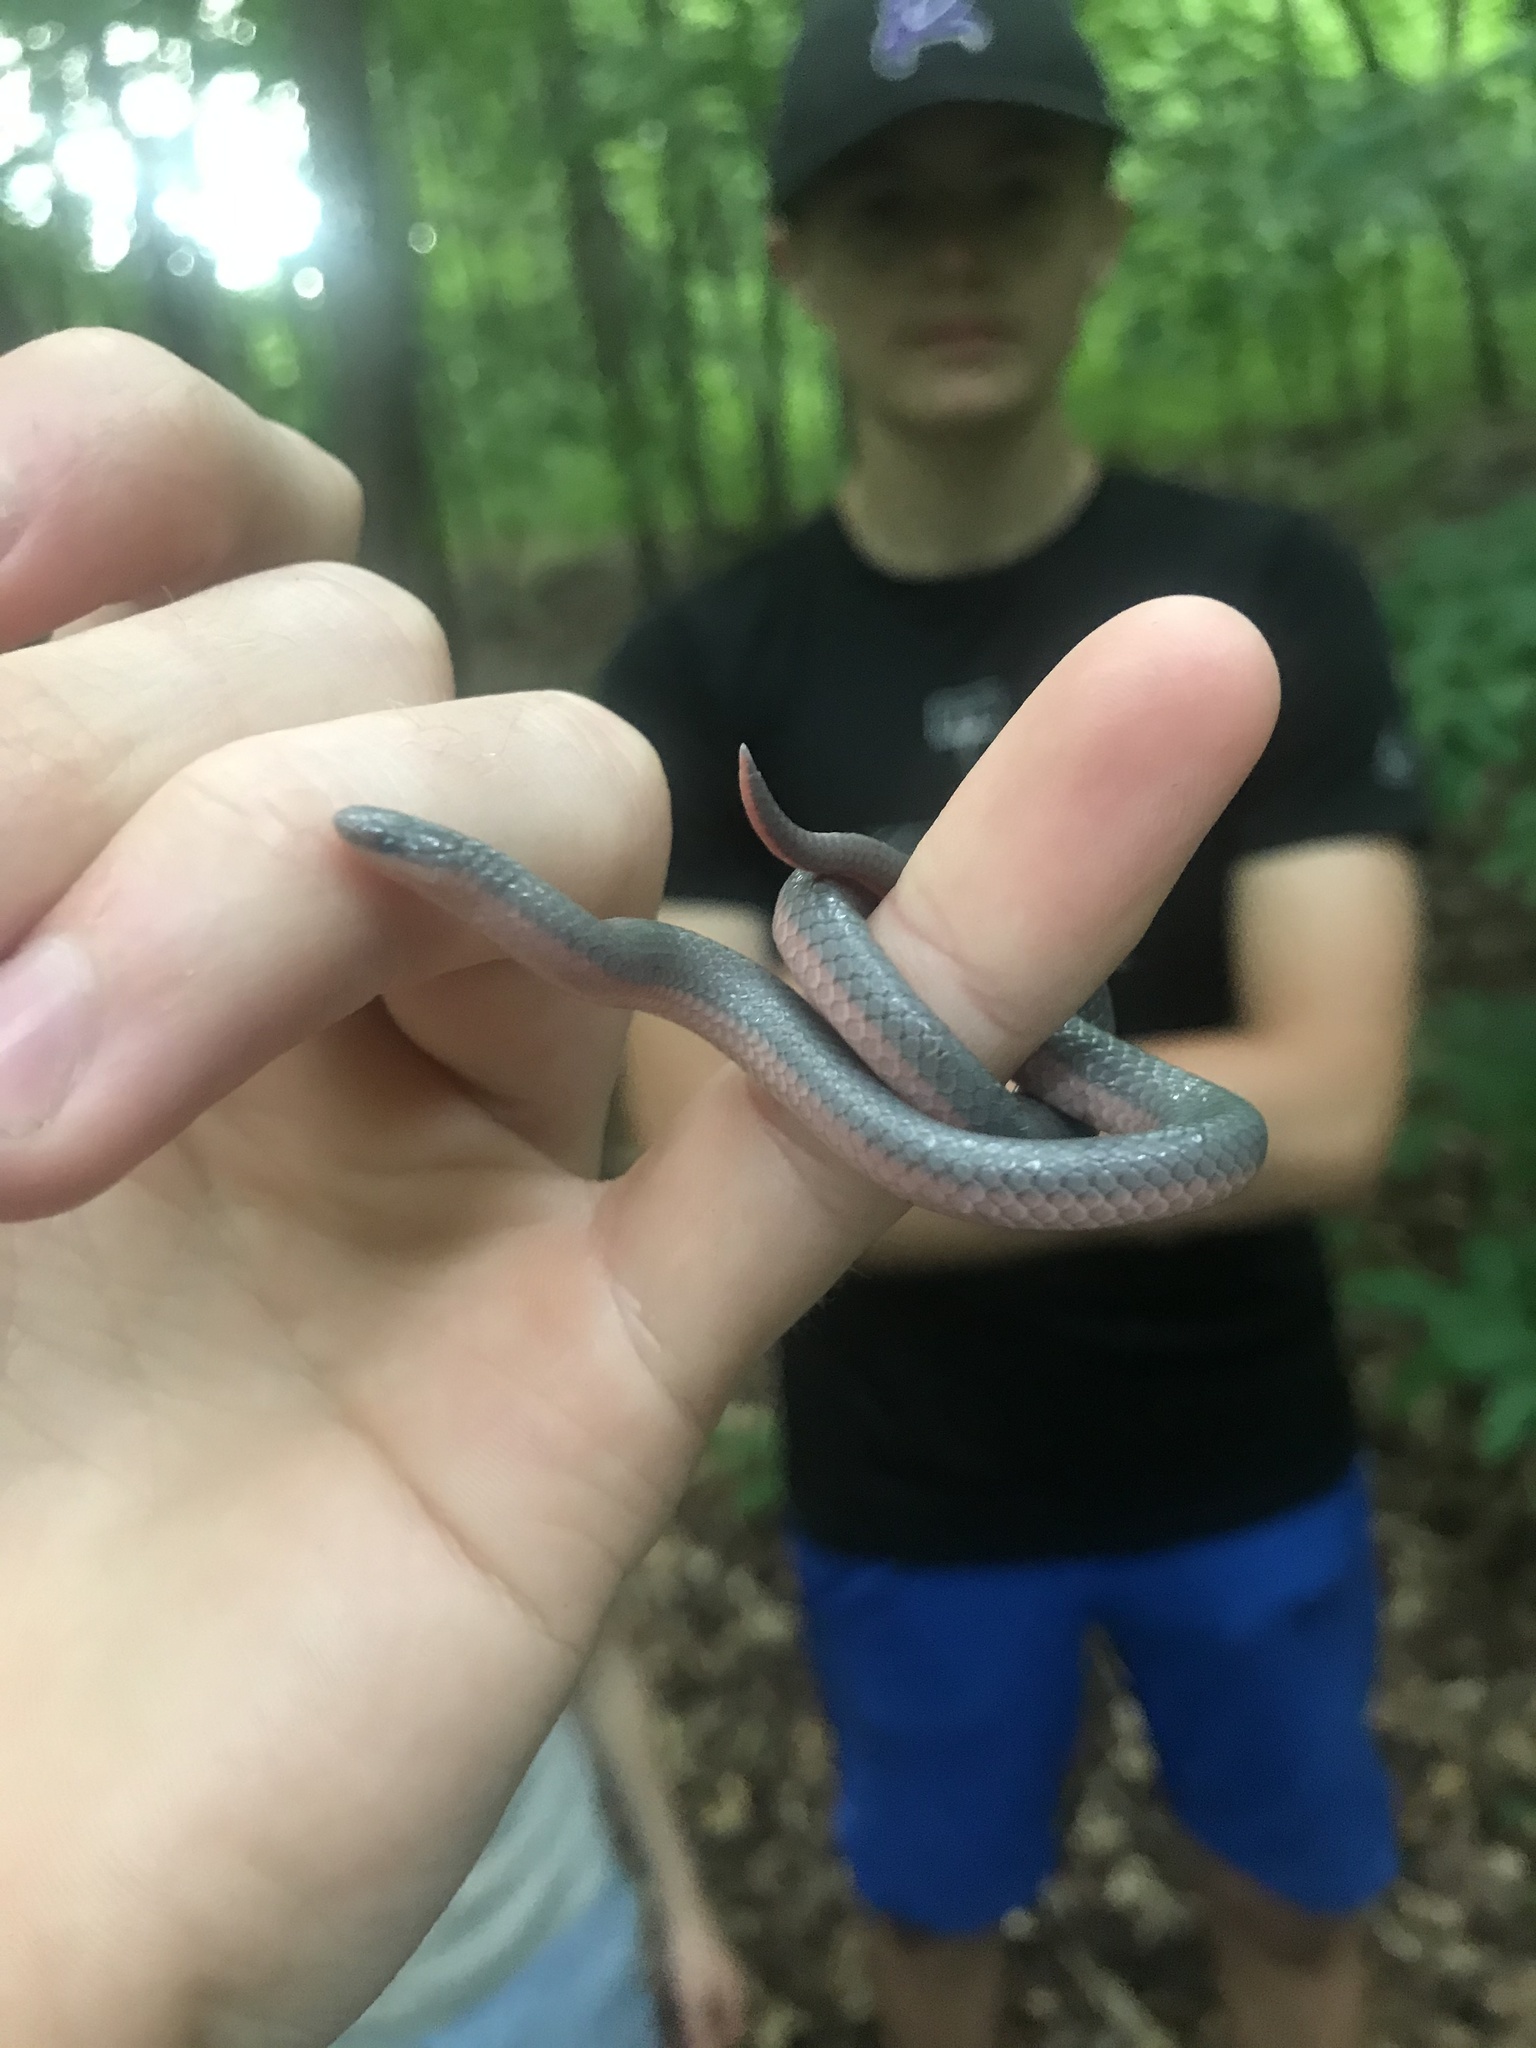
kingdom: Animalia
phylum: Chordata
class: Squamata
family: Colubridae
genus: Carphophis
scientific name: Carphophis amoenus
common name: Eastern worm snake
